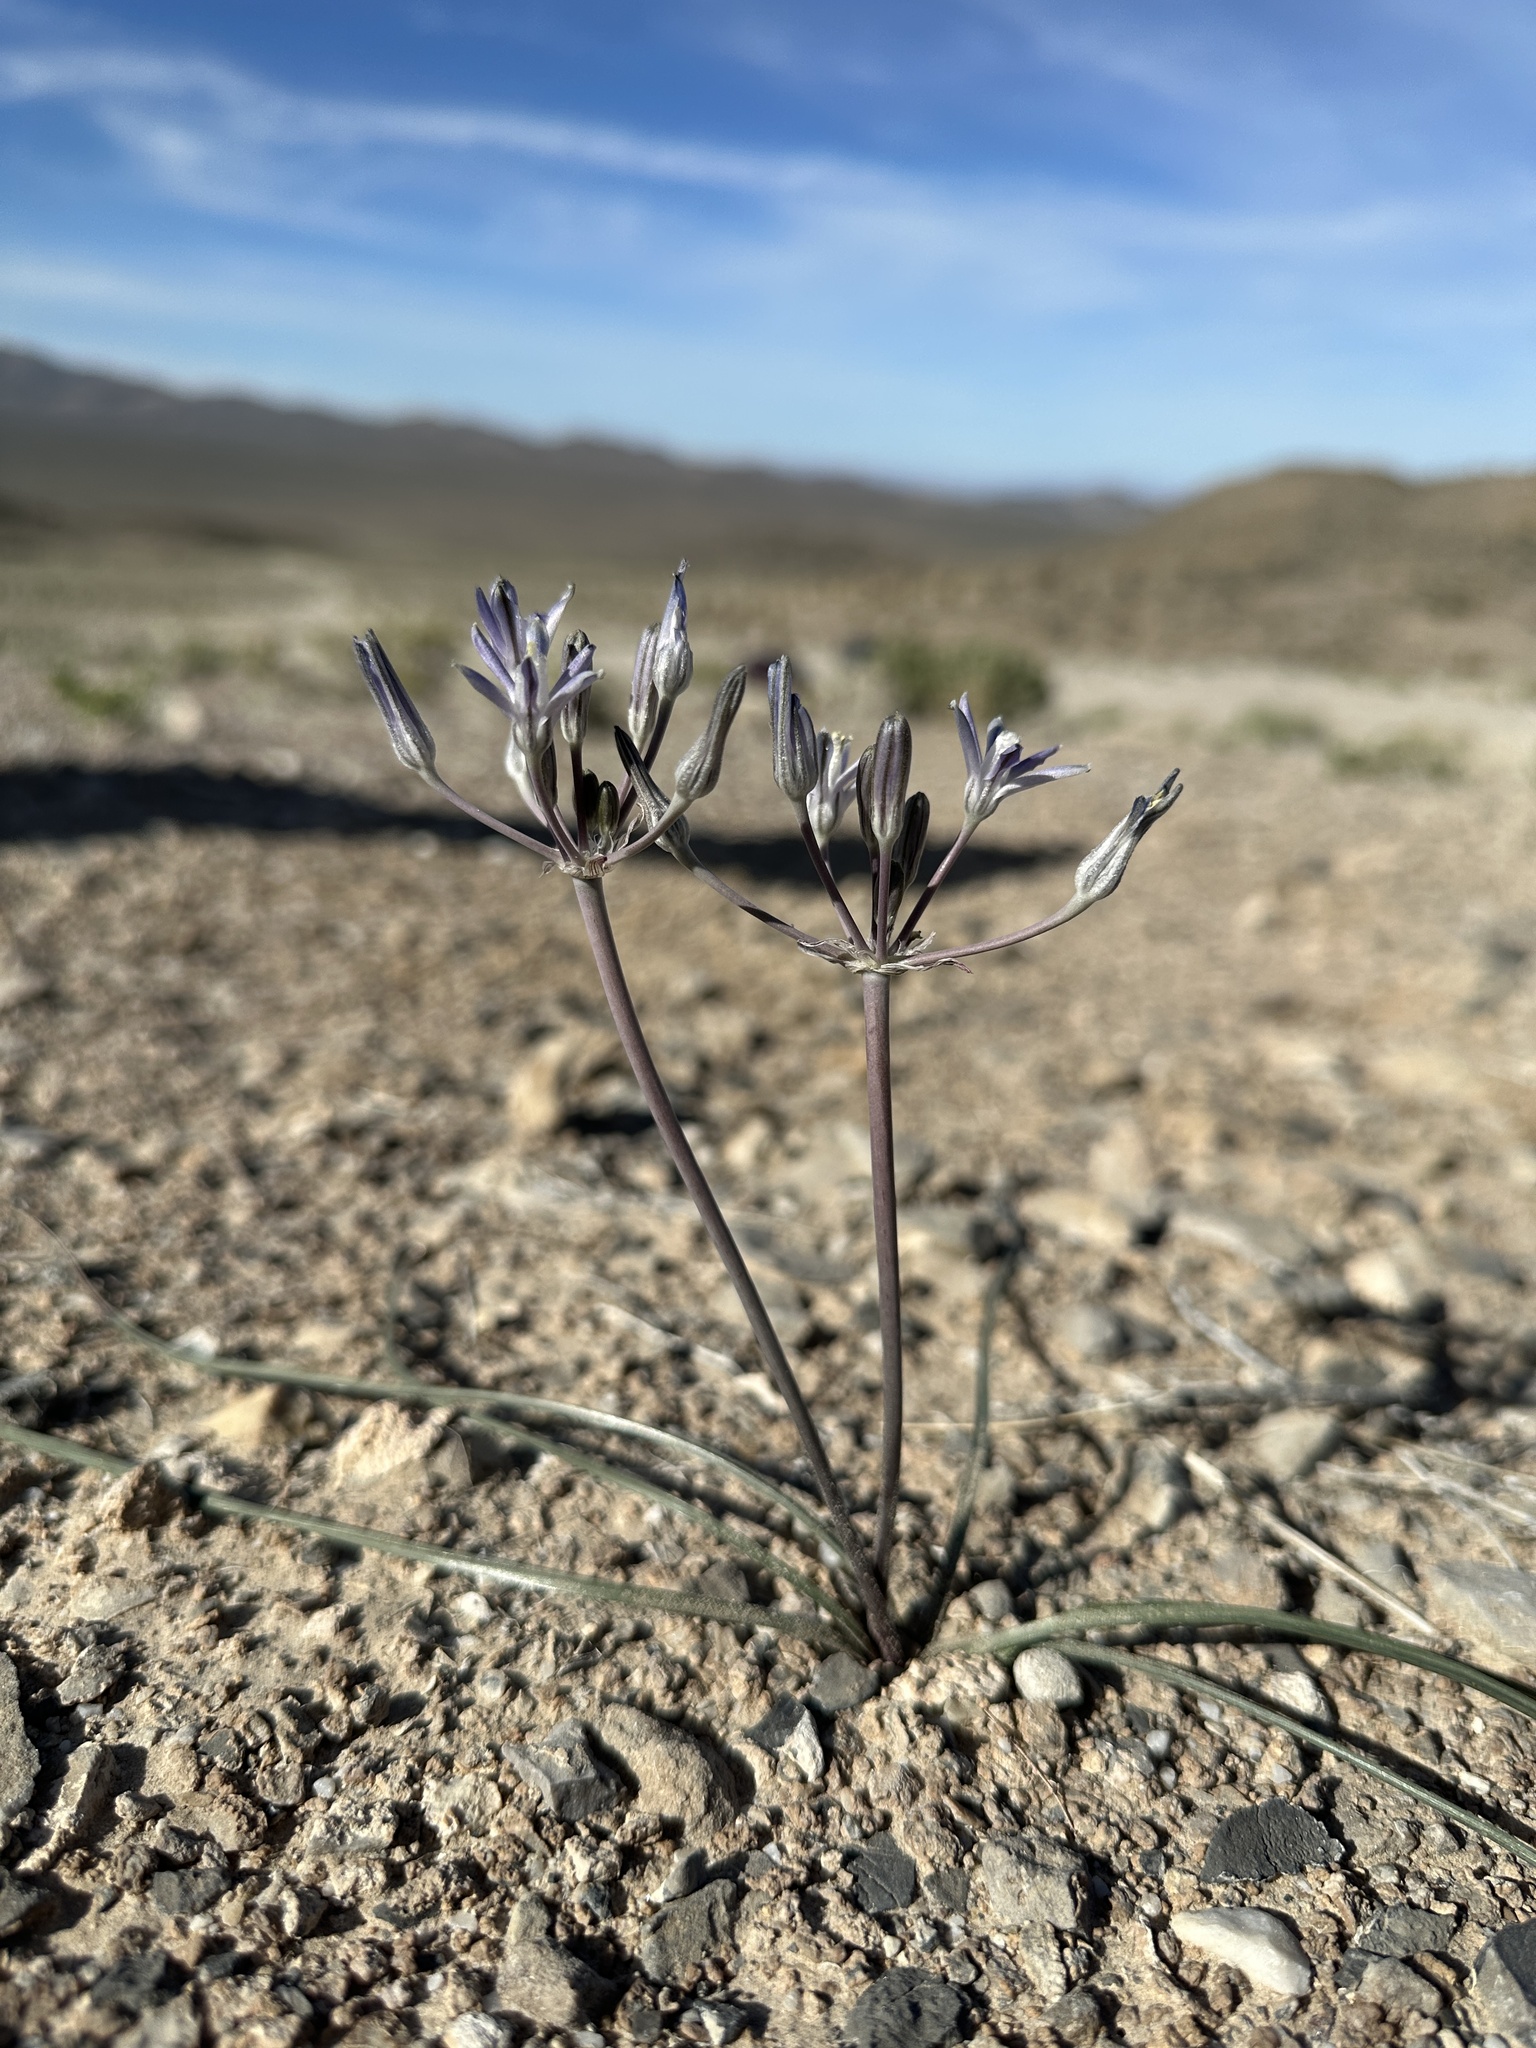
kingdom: Plantae
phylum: Tracheophyta
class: Liliopsida
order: Asparagales
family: Asparagaceae
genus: Androstephium
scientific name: Androstephium breviflorum
